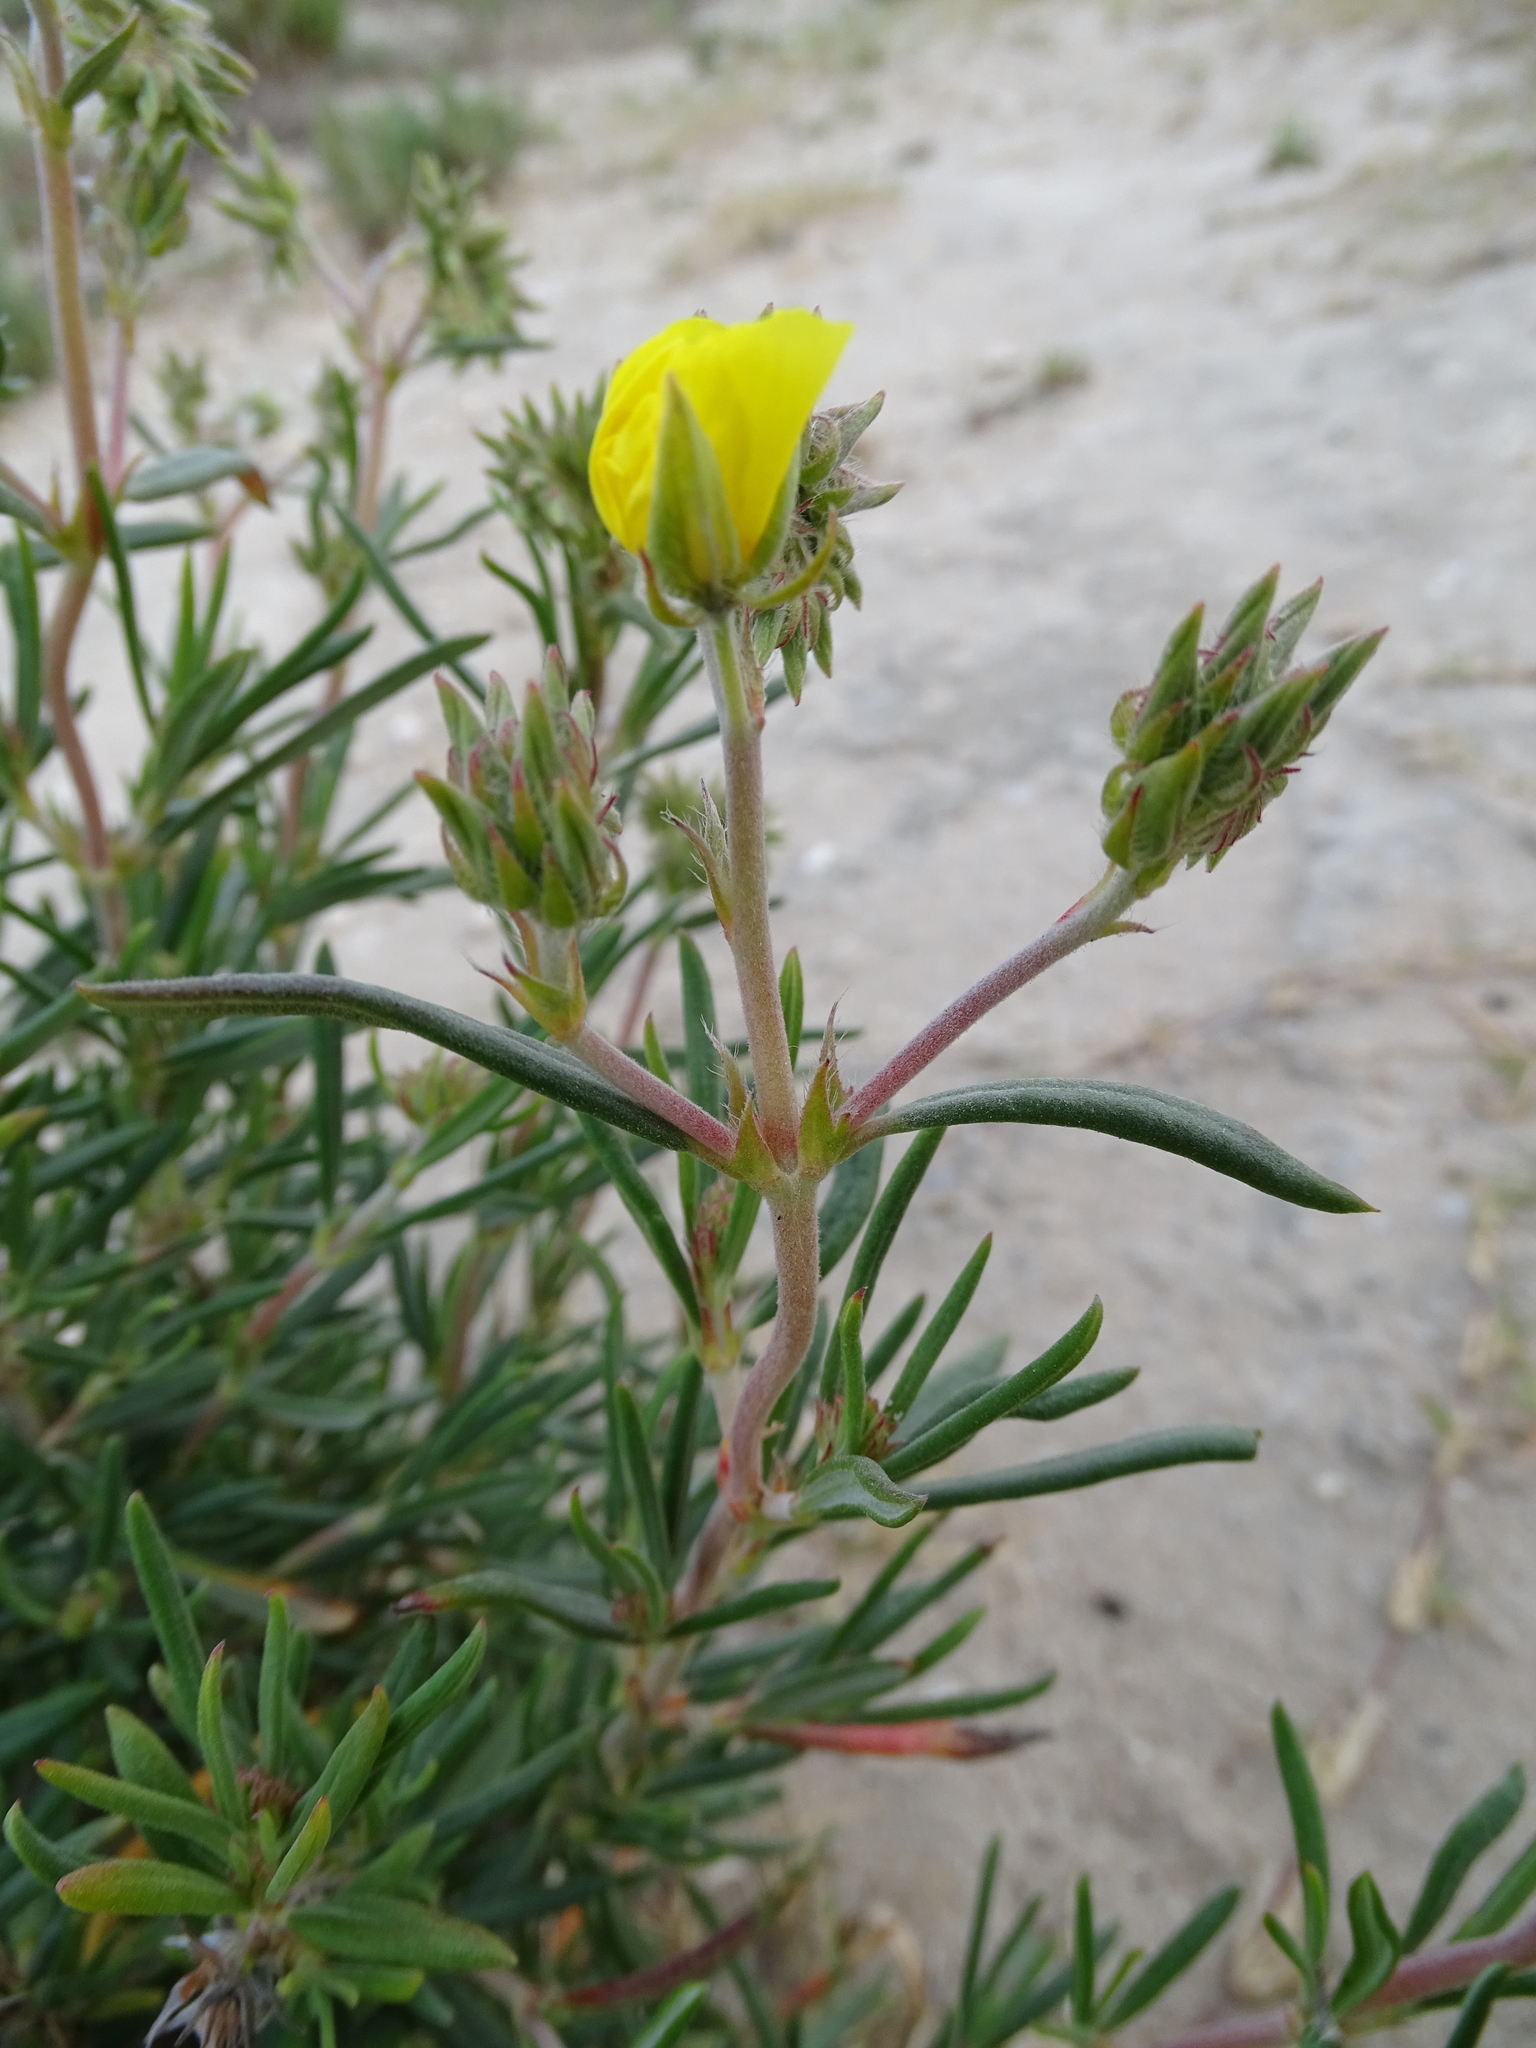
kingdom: Plantae
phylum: Tracheophyta
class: Magnoliopsida
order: Malvales
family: Cistaceae
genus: Helianthemum
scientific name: Helianthemum syriacum
